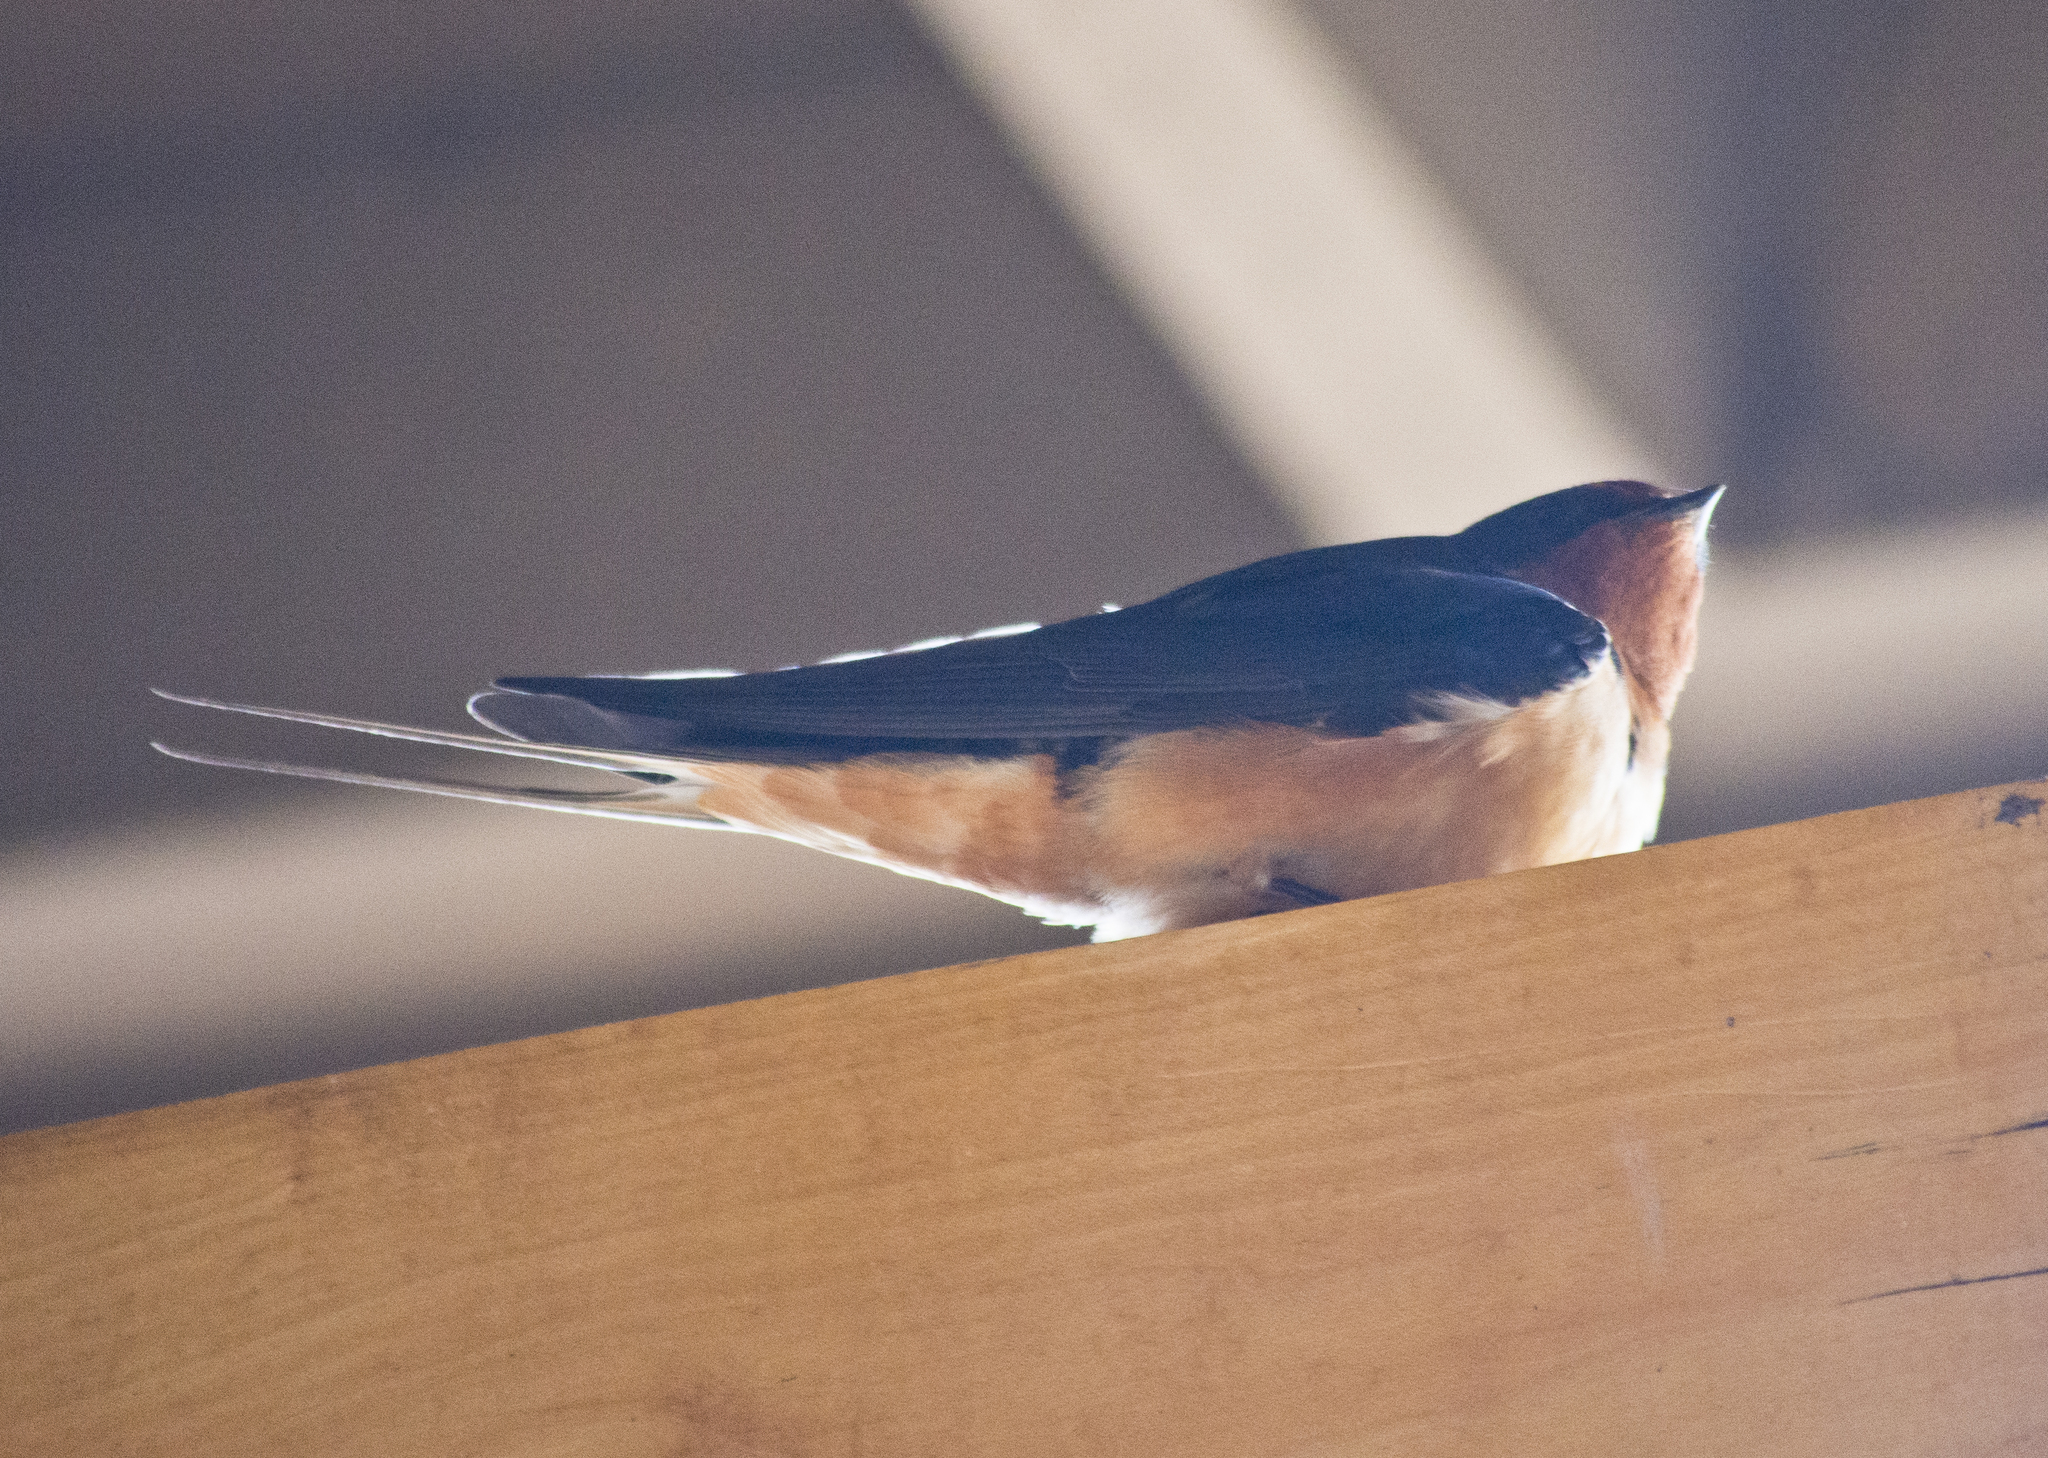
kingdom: Animalia
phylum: Chordata
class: Aves
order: Passeriformes
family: Hirundinidae
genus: Hirundo
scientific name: Hirundo rustica
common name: Barn swallow
